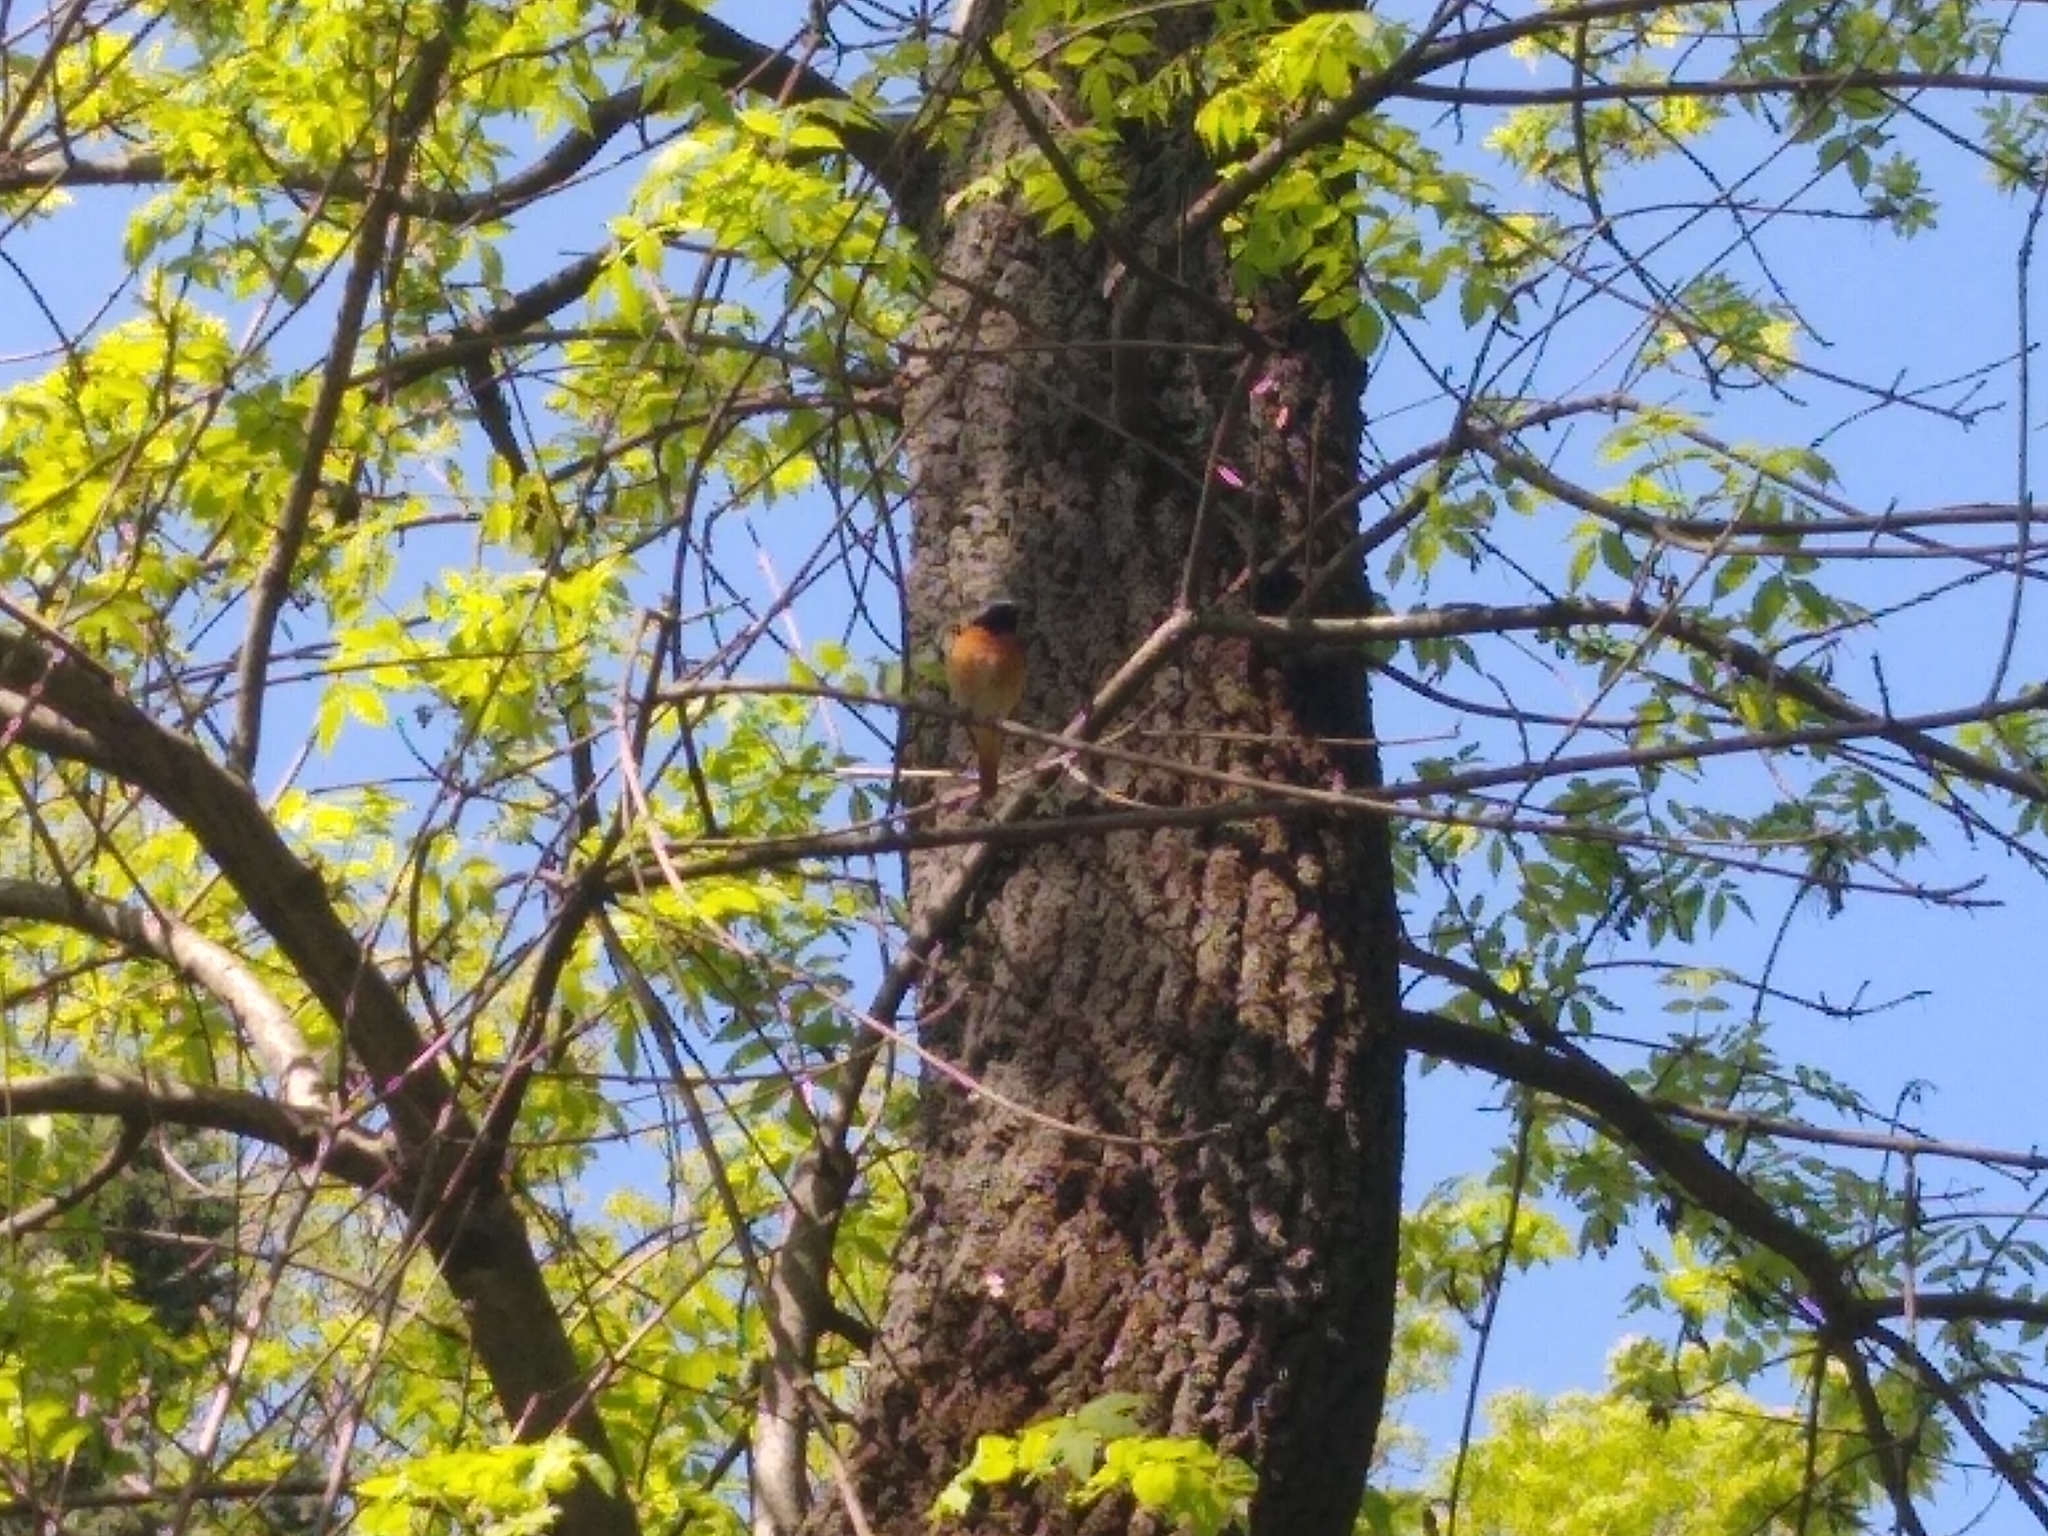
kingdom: Animalia
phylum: Chordata
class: Aves
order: Passeriformes
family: Muscicapidae
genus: Phoenicurus
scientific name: Phoenicurus phoenicurus
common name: Common redstart
